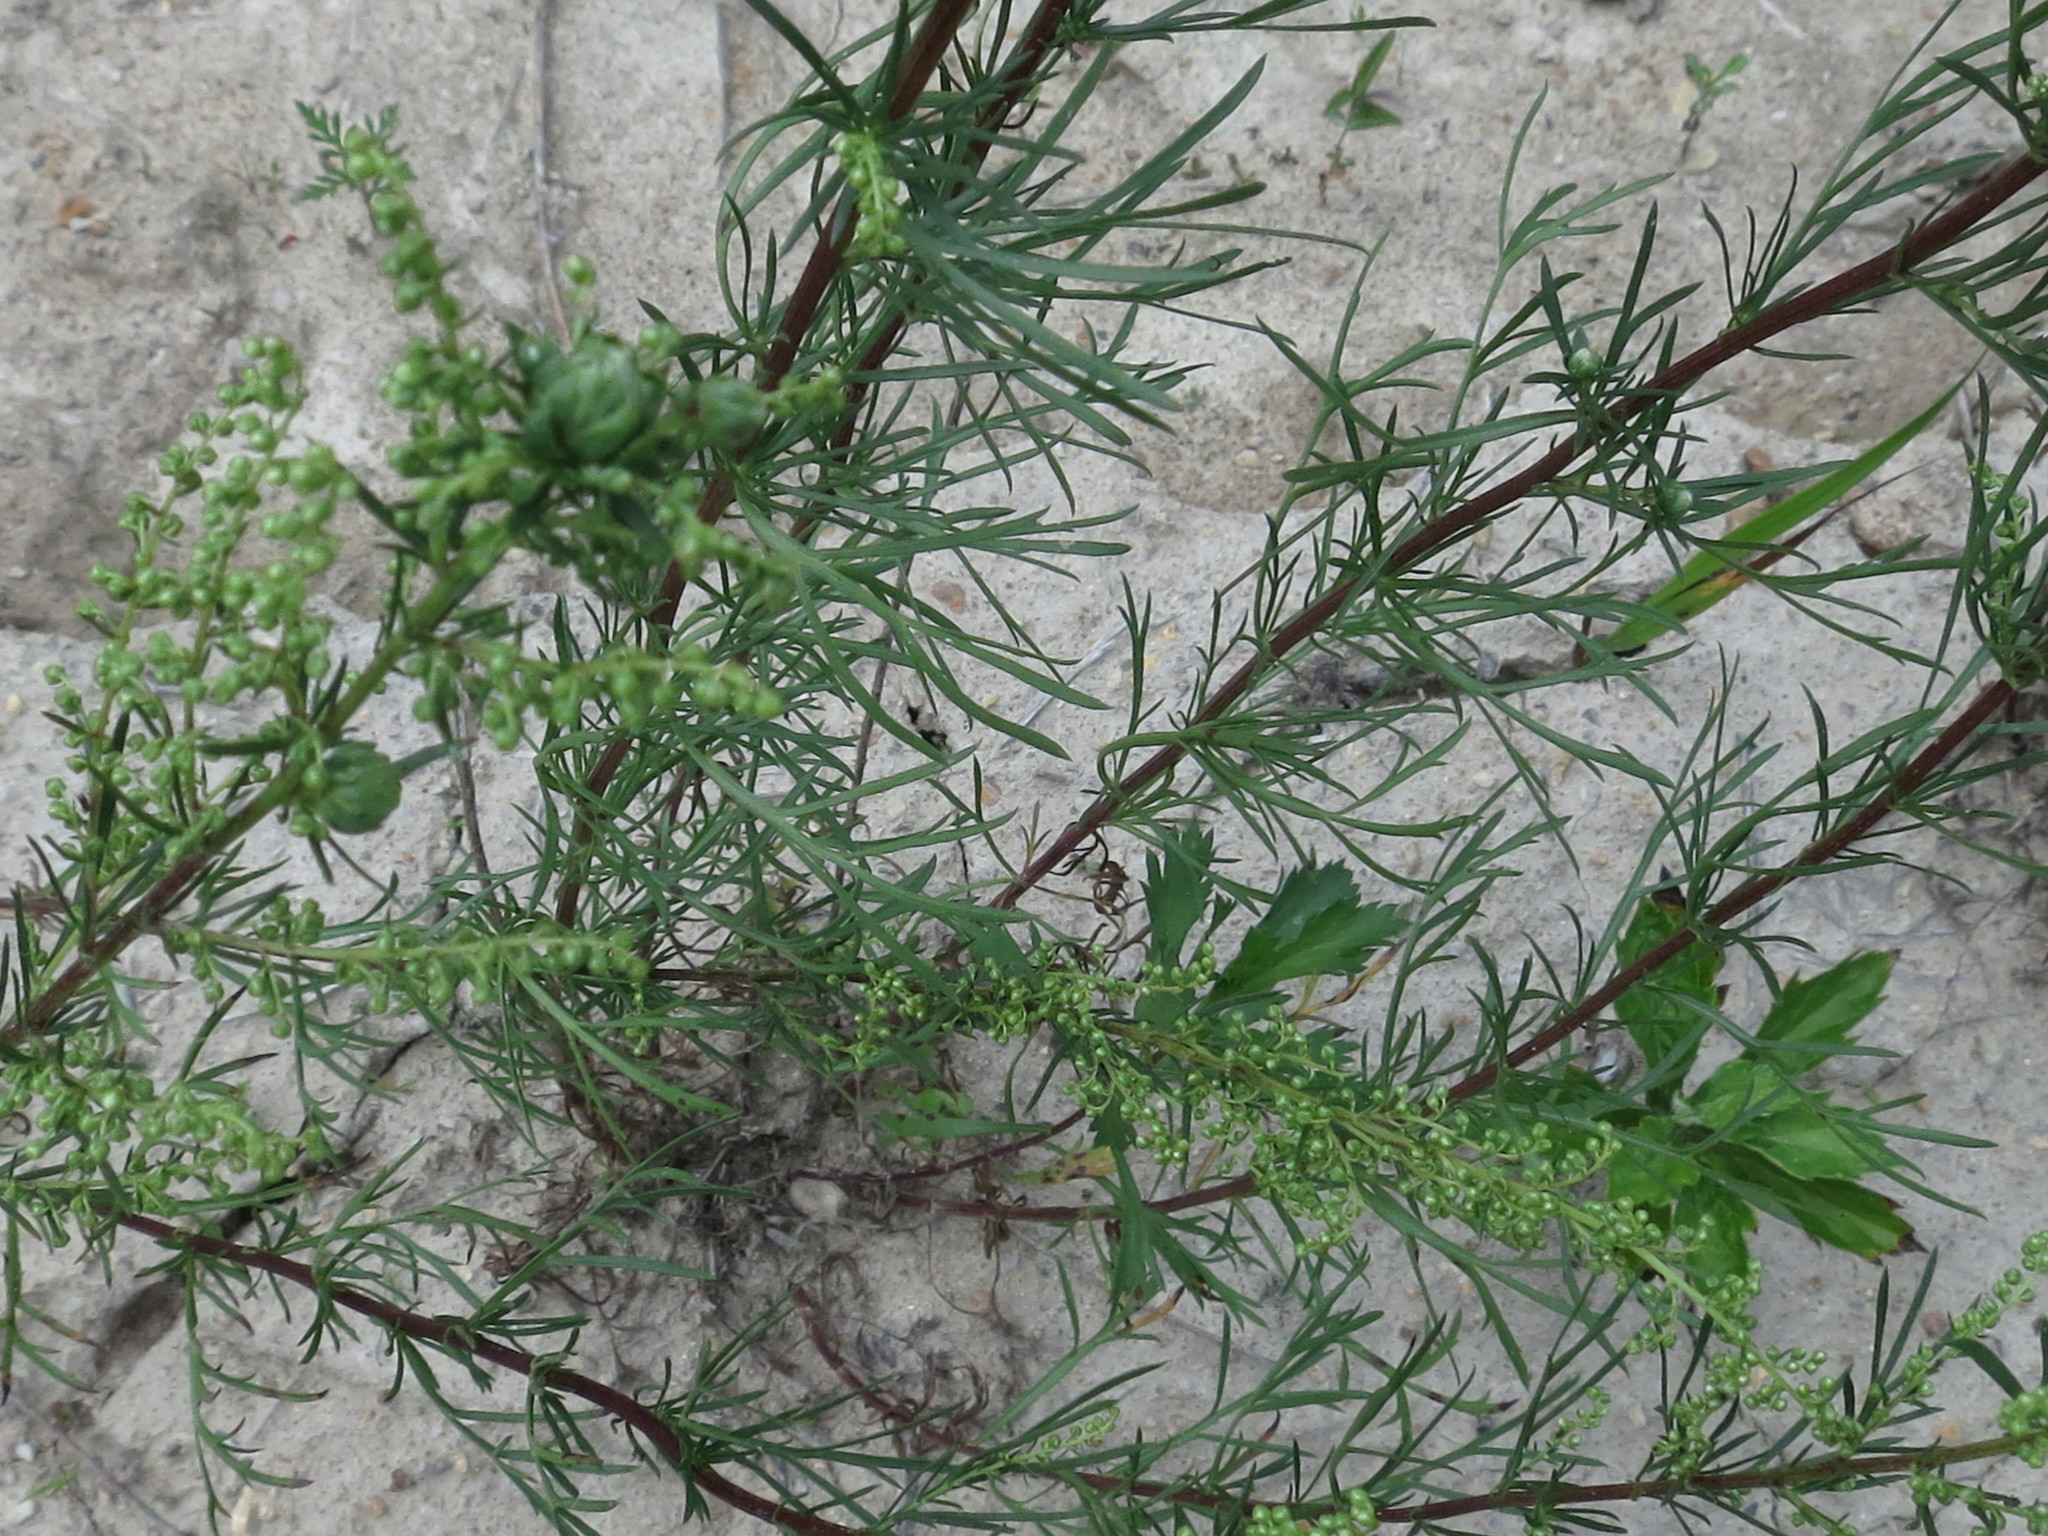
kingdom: Plantae
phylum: Tracheophyta
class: Magnoliopsida
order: Asterales
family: Asteraceae
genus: Artemisia
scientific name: Artemisia desertorum
